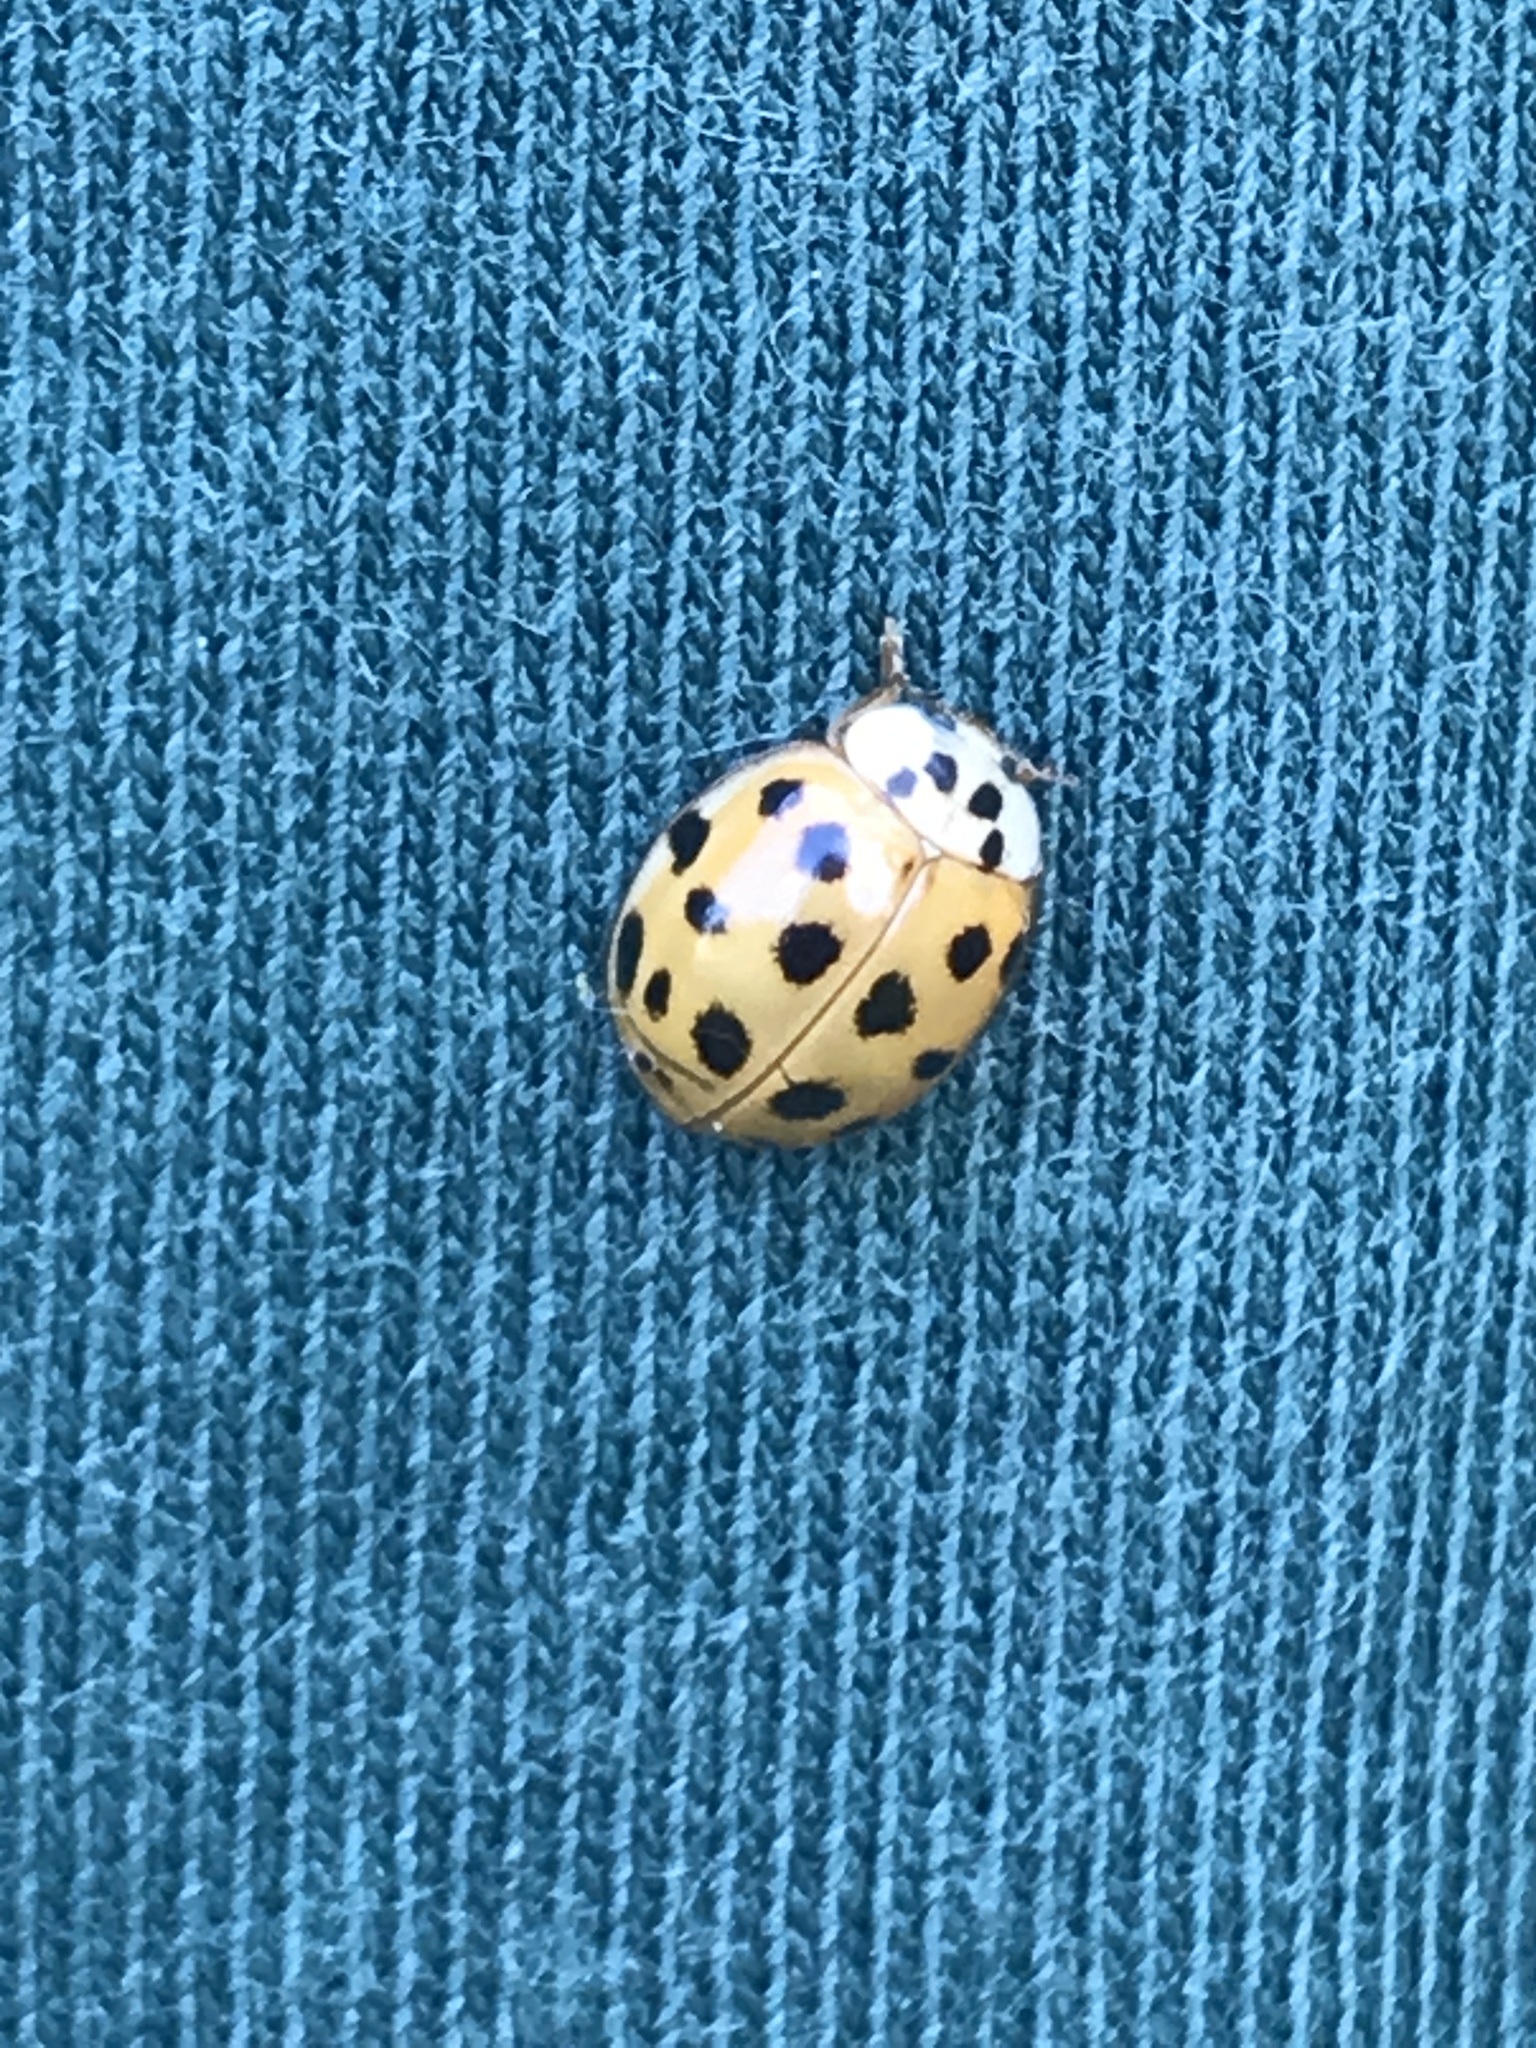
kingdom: Animalia
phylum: Arthropoda
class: Insecta
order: Coleoptera
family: Coccinellidae
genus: Harmonia
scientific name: Harmonia axyridis
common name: Harlequin ladybird
